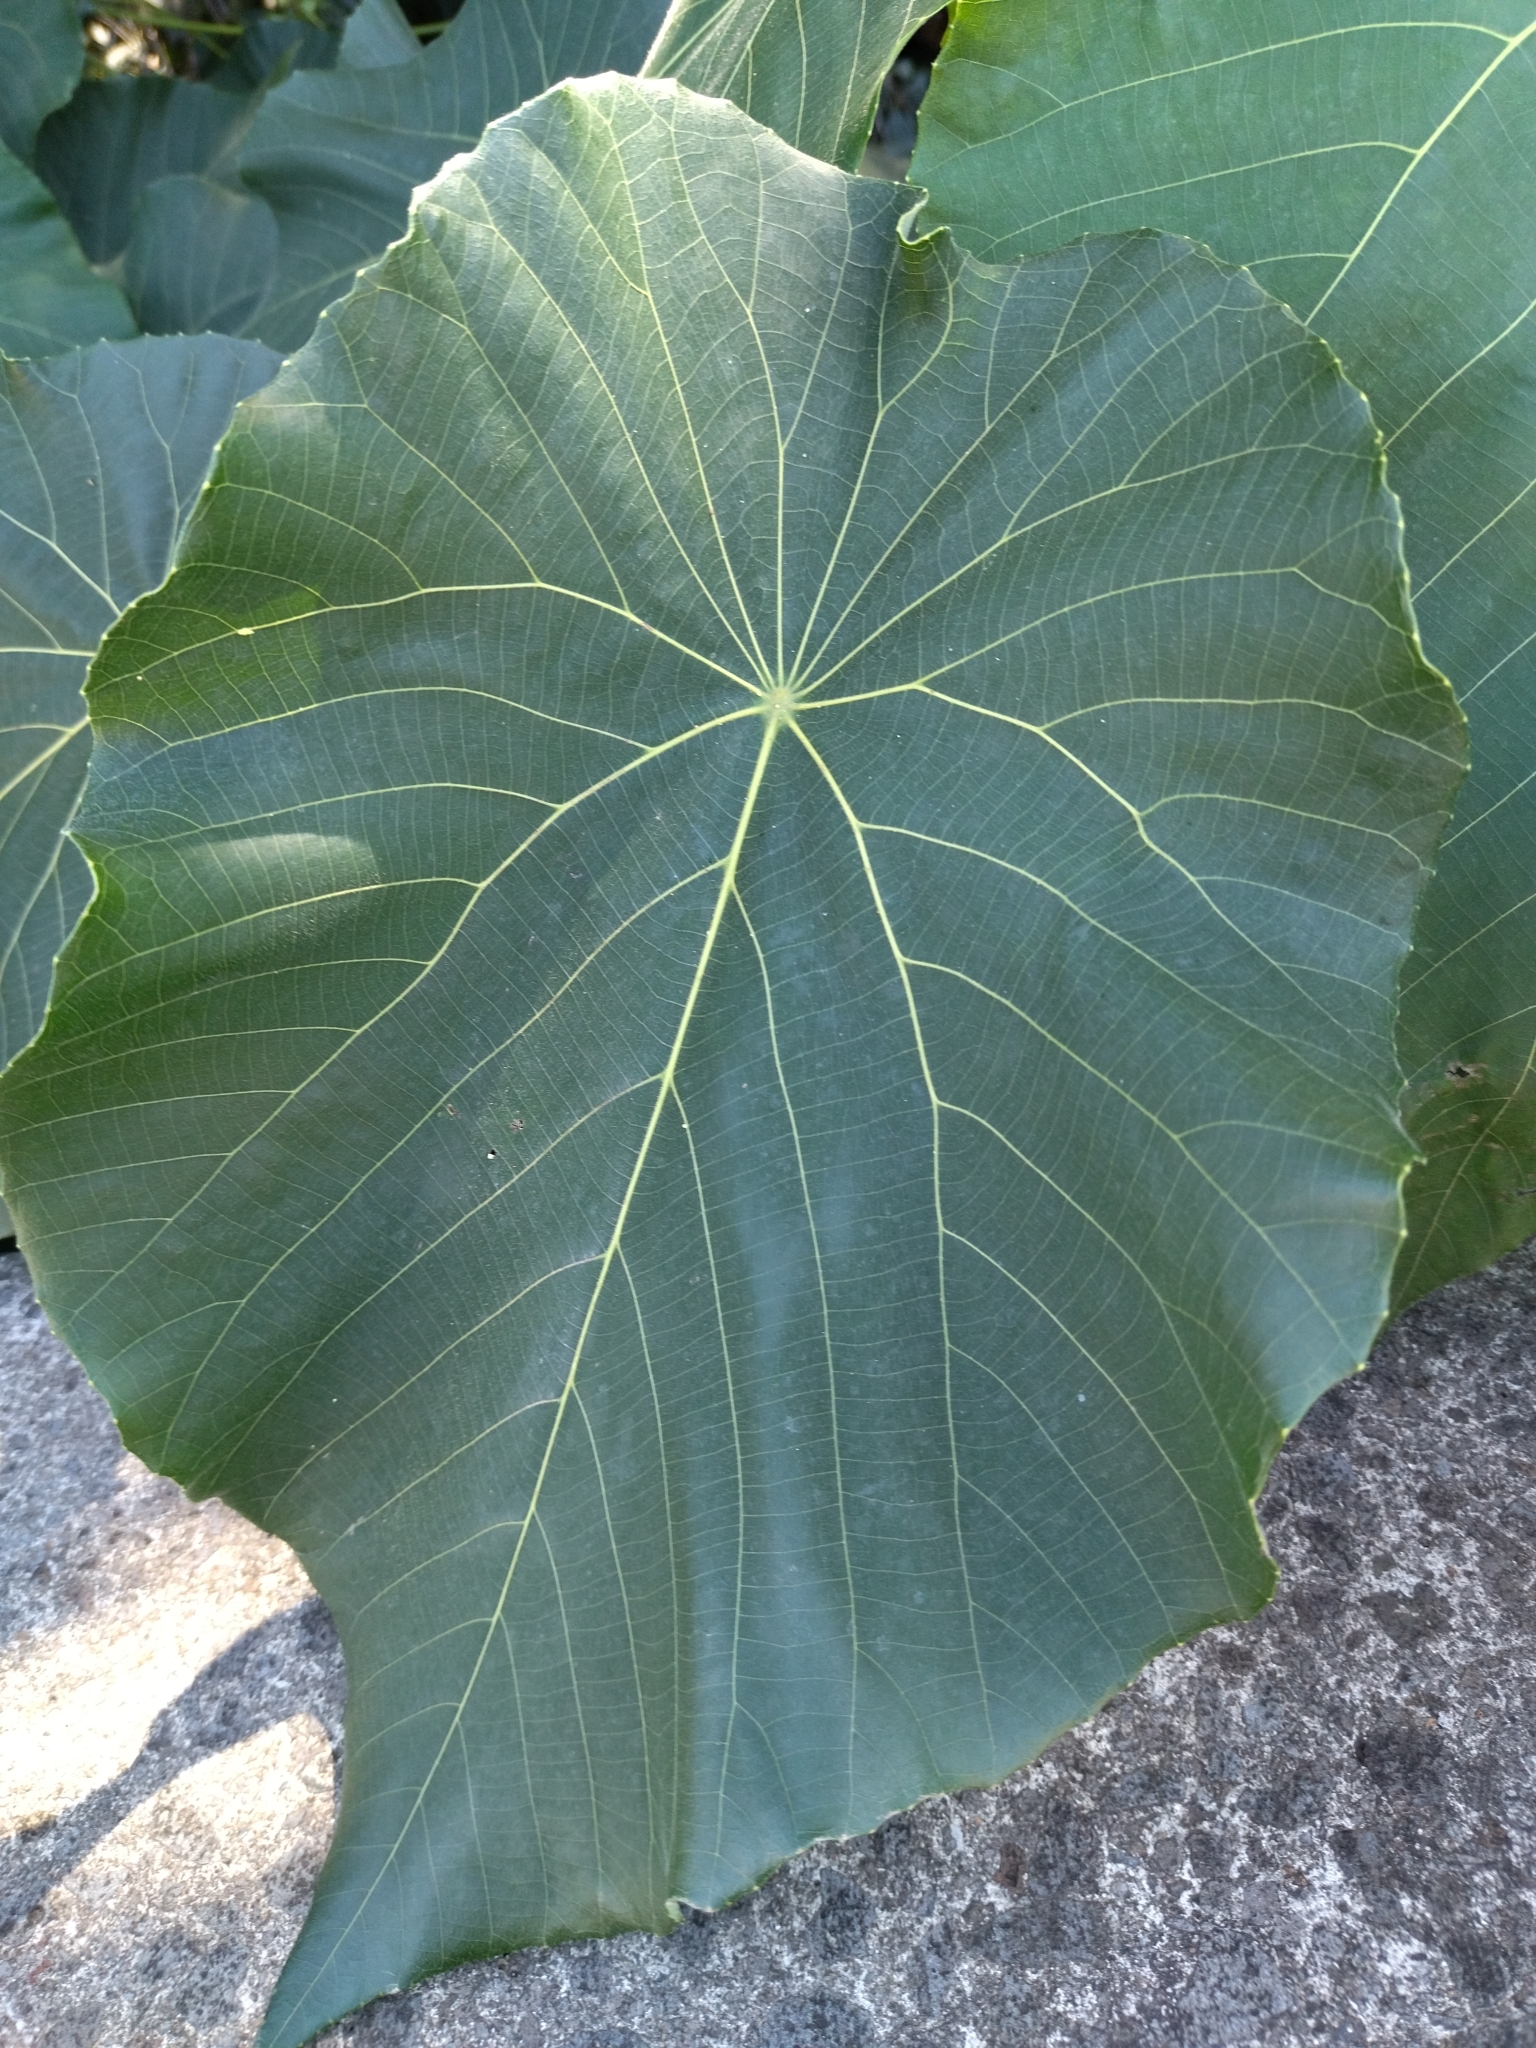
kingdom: Plantae
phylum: Tracheophyta
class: Magnoliopsida
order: Malpighiales
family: Euphorbiaceae
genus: Macaranga
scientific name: Macaranga tanarius
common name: Parasol leaf tree
